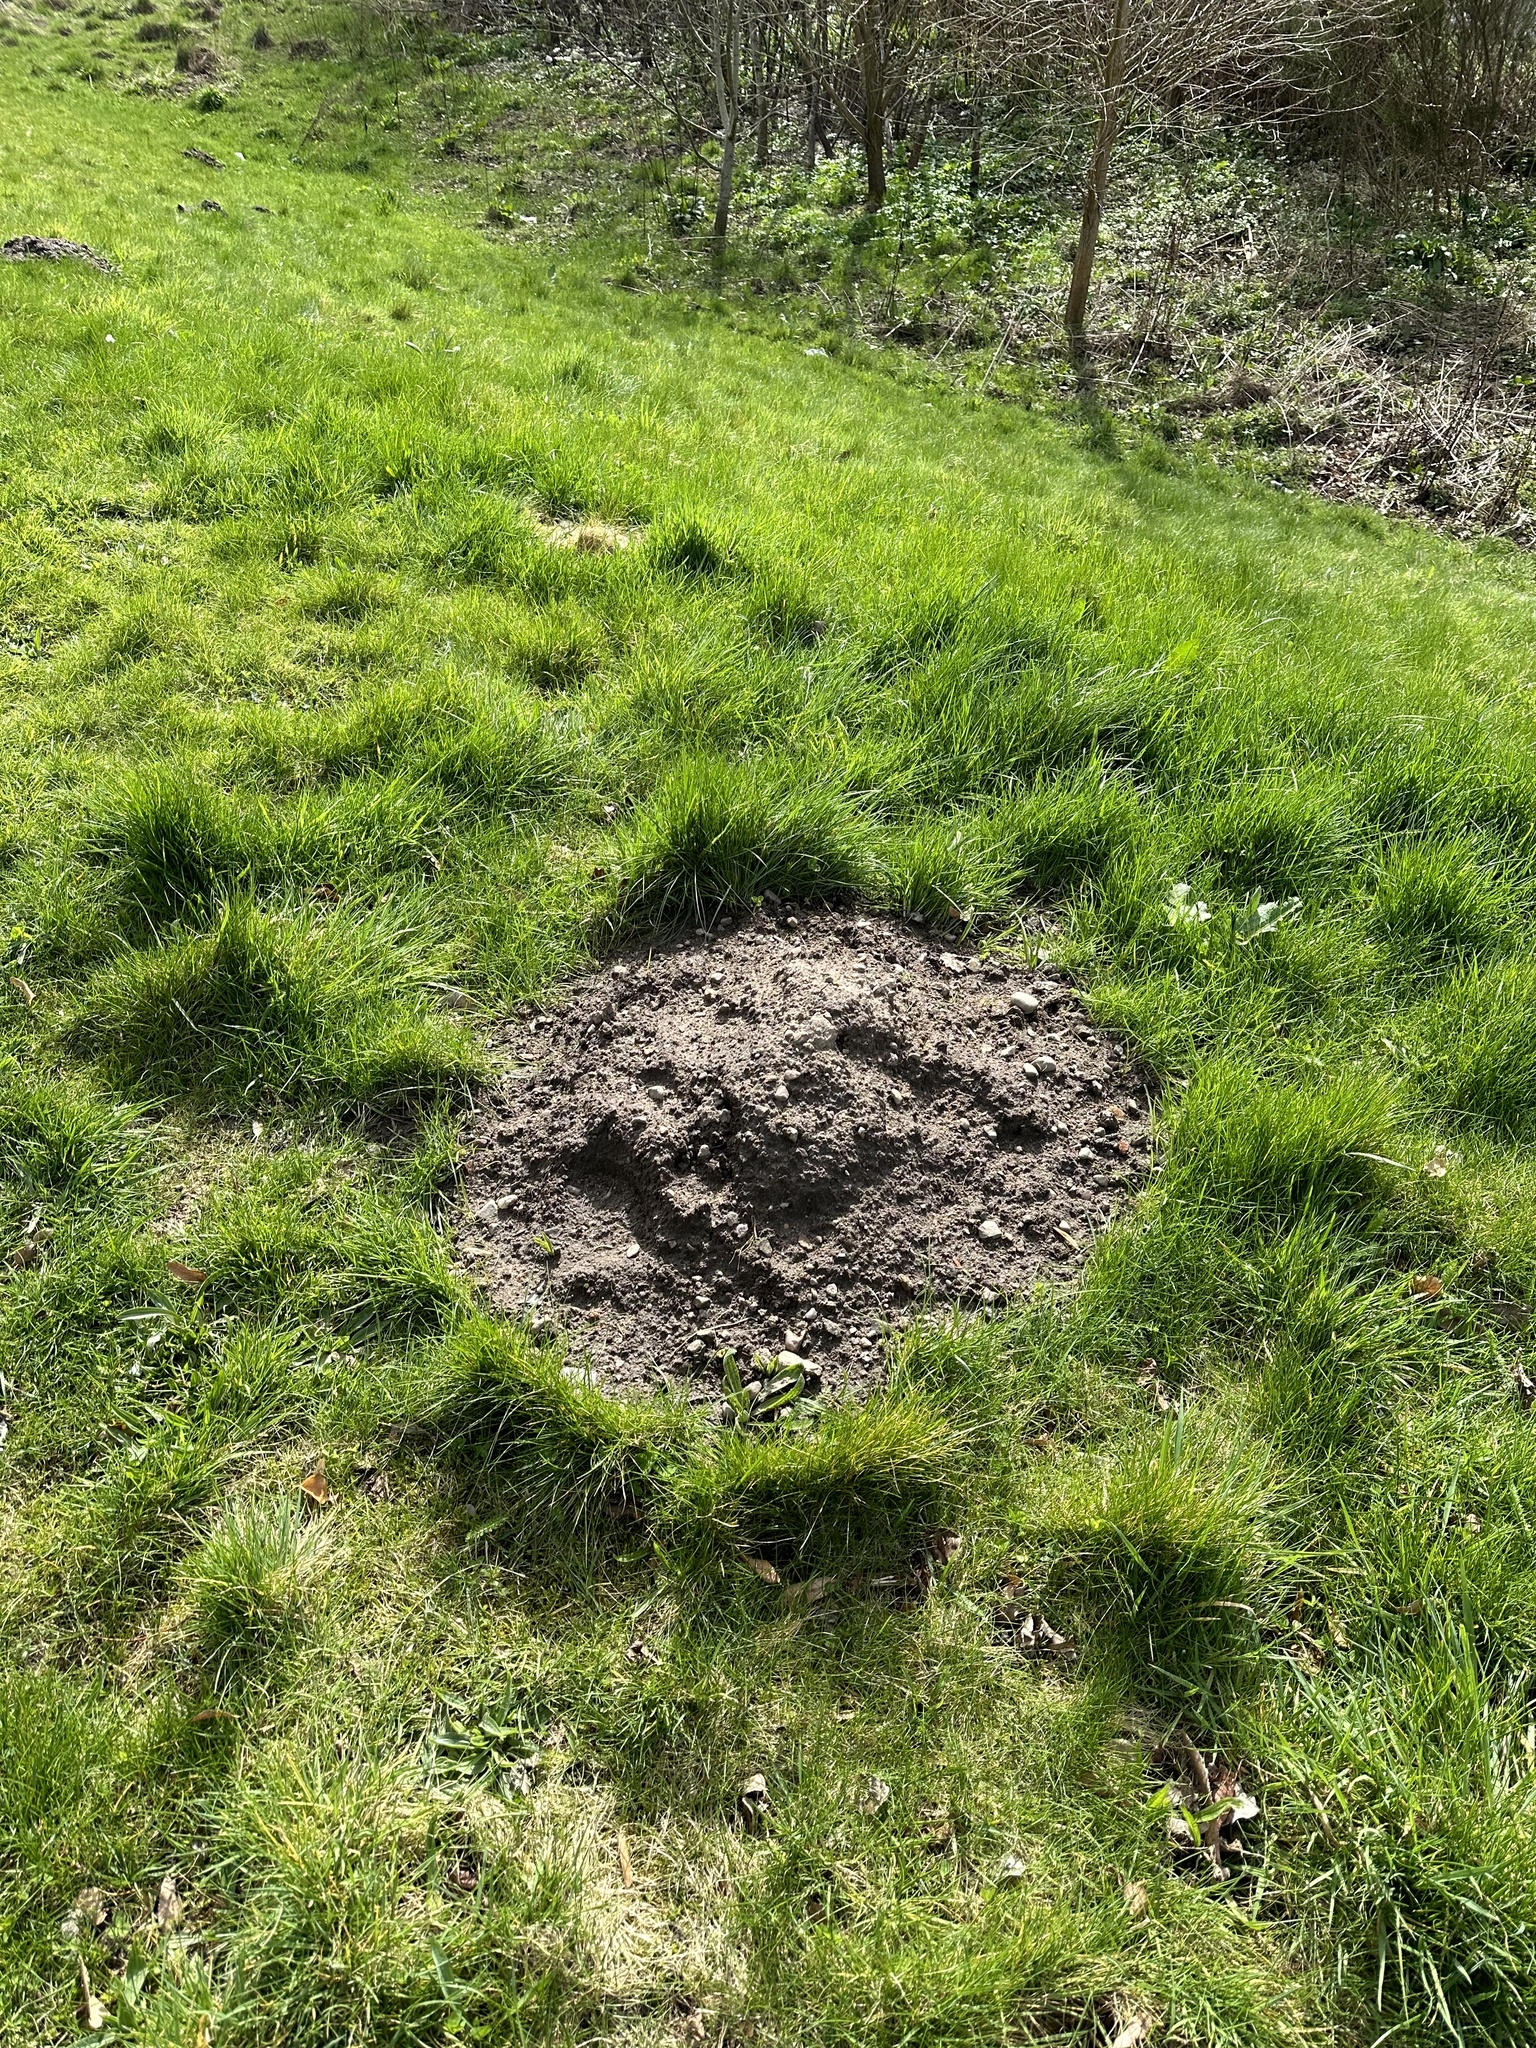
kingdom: Animalia
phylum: Chordata
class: Mammalia
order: Soricomorpha
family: Talpidae
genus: Talpa
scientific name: Talpa europaea
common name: European mole
